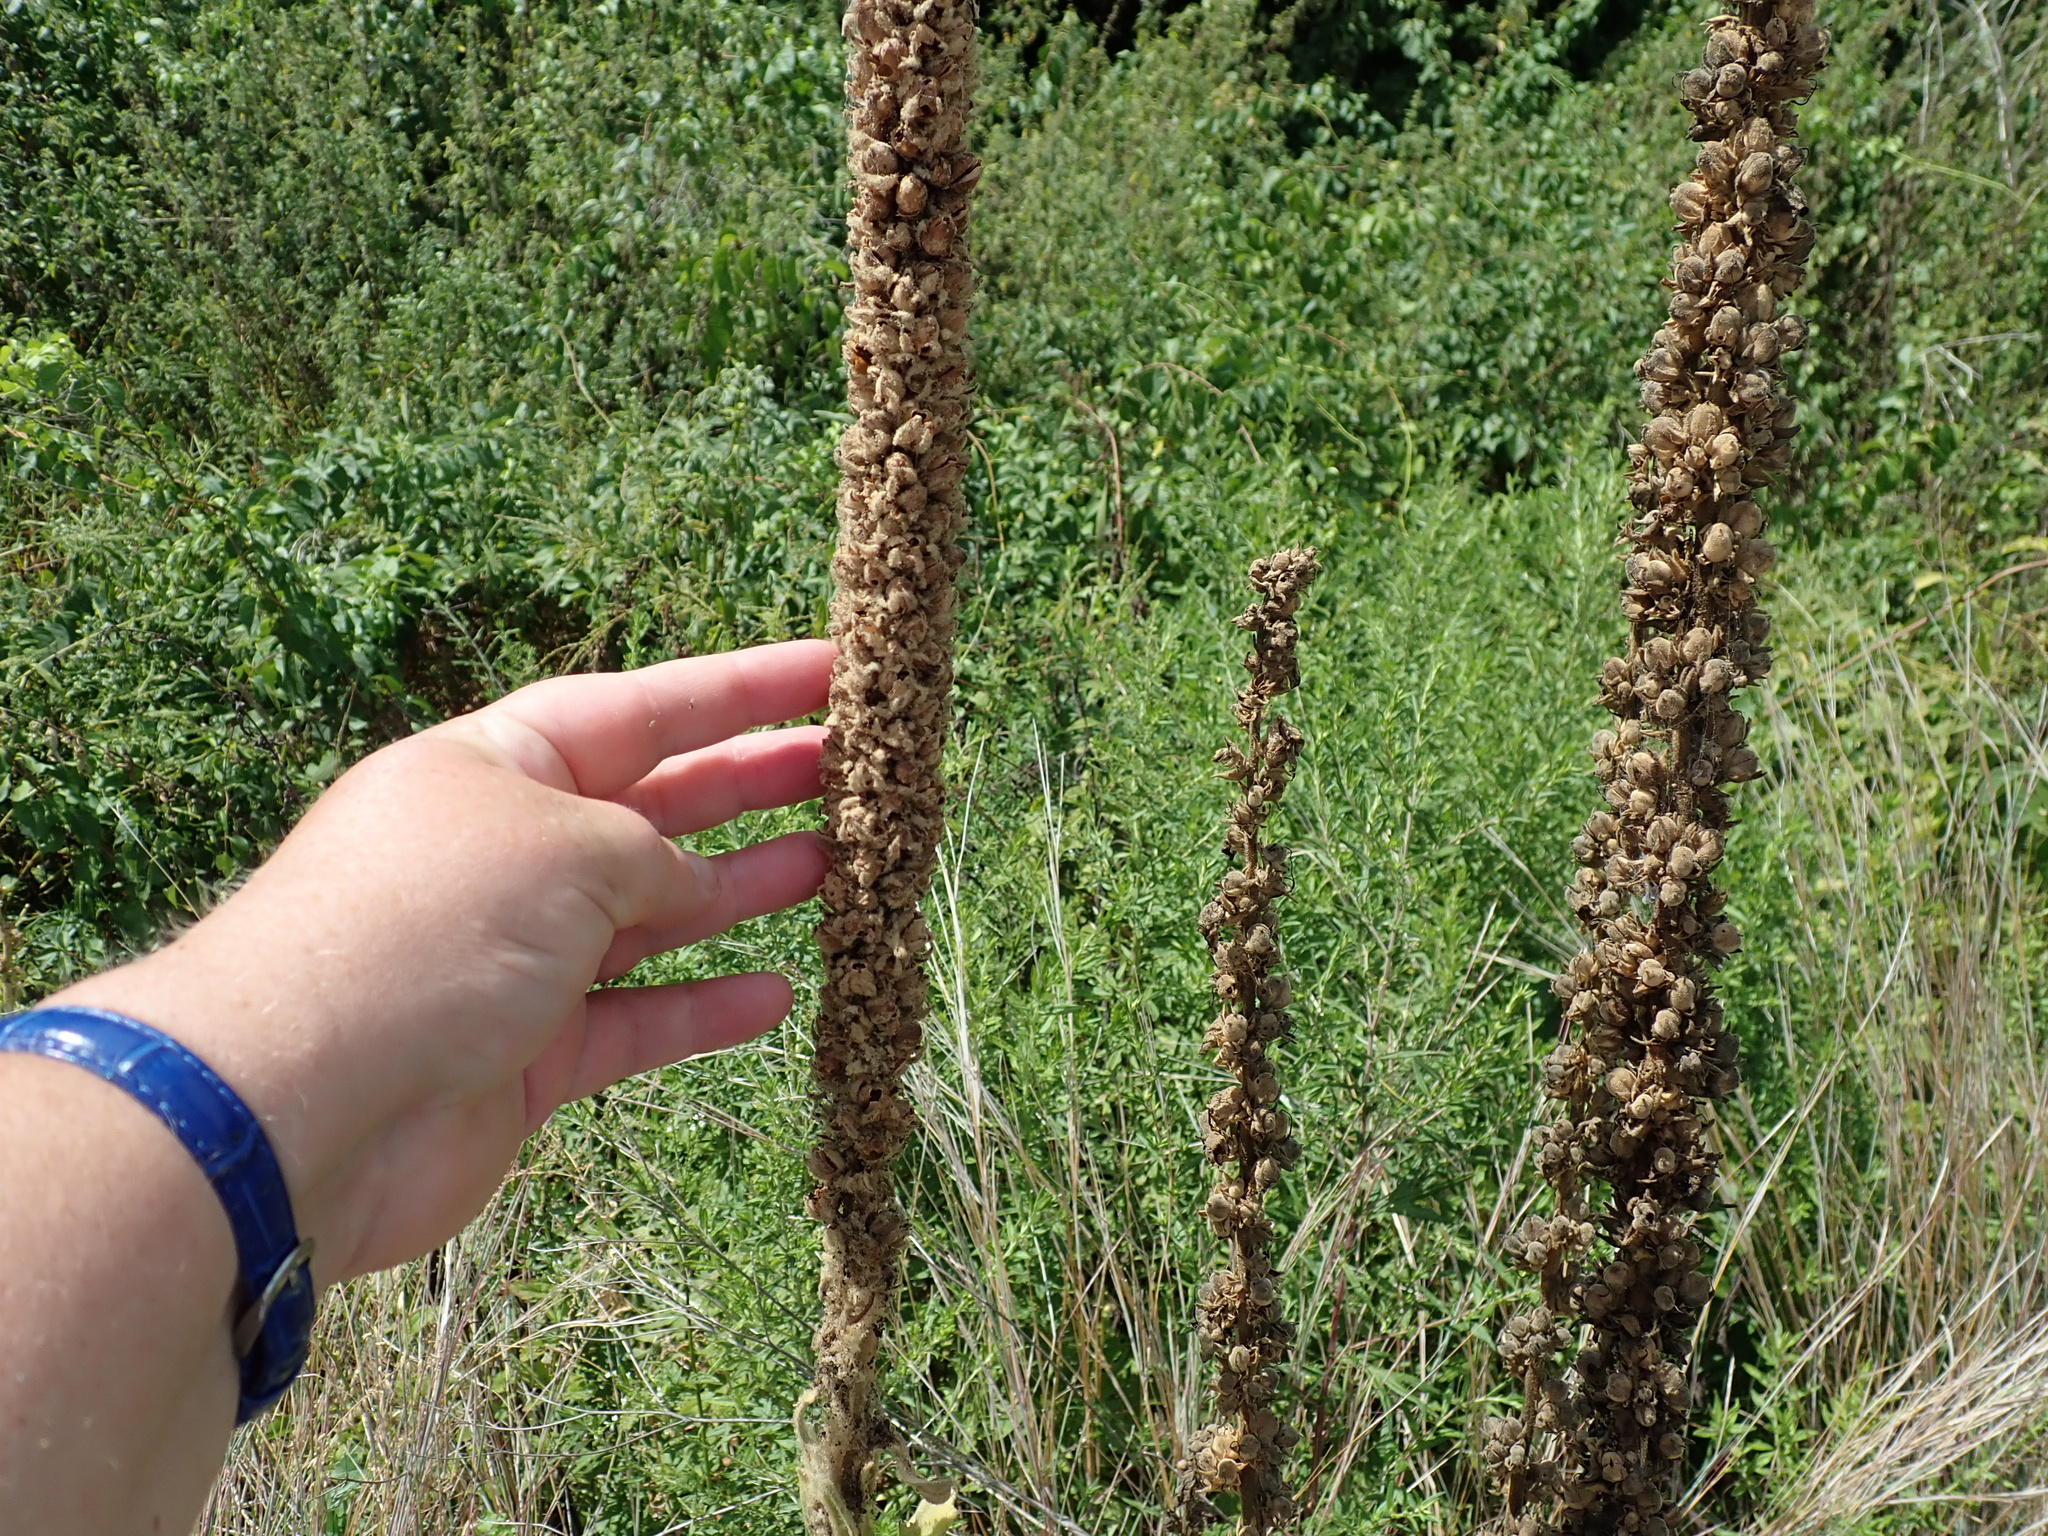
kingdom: Plantae
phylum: Tracheophyta
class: Magnoliopsida
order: Lamiales
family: Scrophulariaceae
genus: Verbascum
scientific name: Verbascum thapsus
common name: Common mullein
